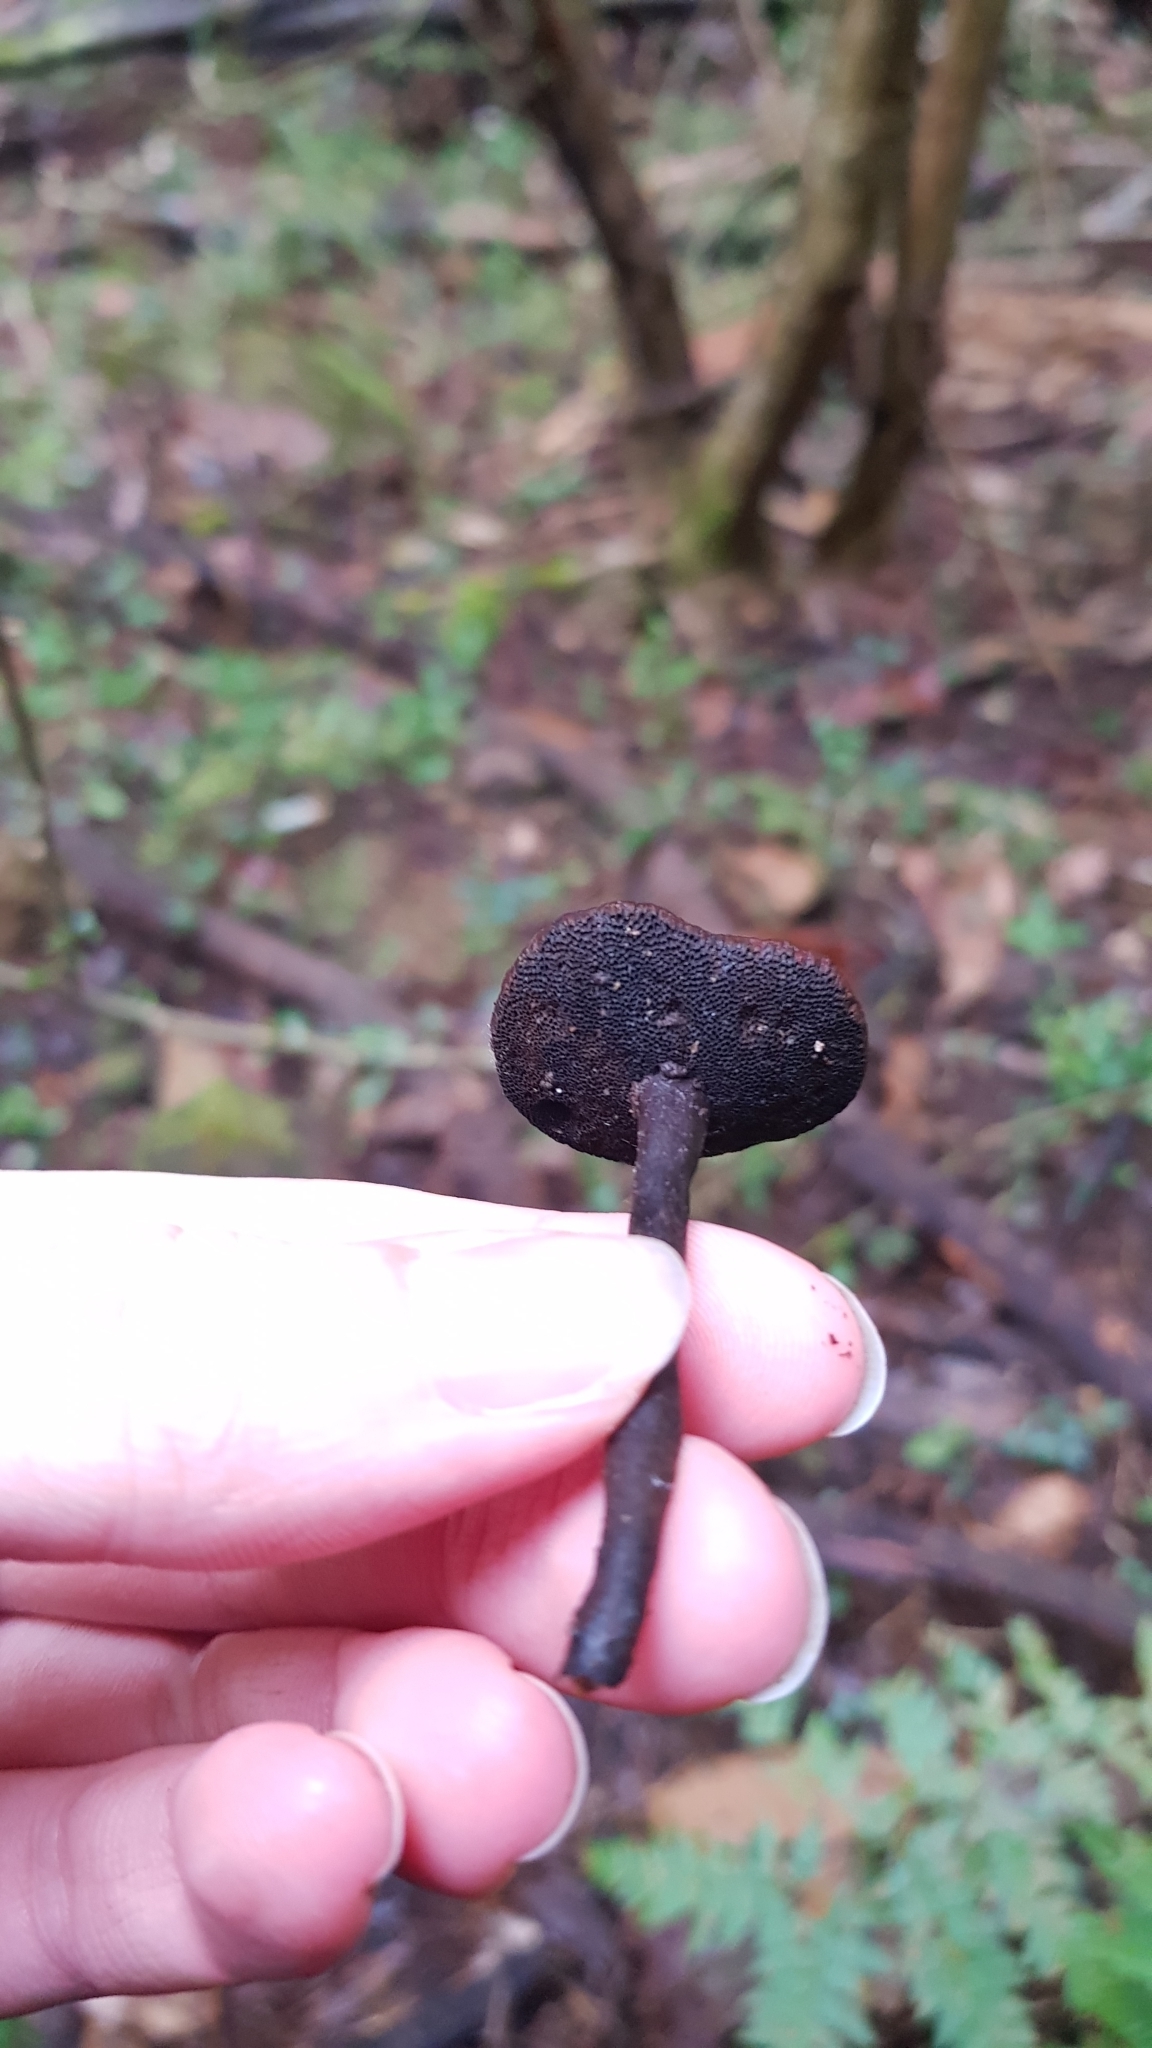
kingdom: Fungi
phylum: Basidiomycota
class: Agaricomycetes
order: Polyporales
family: Ganodermataceae
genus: Sanguinoderma
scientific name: Sanguinoderma rude
